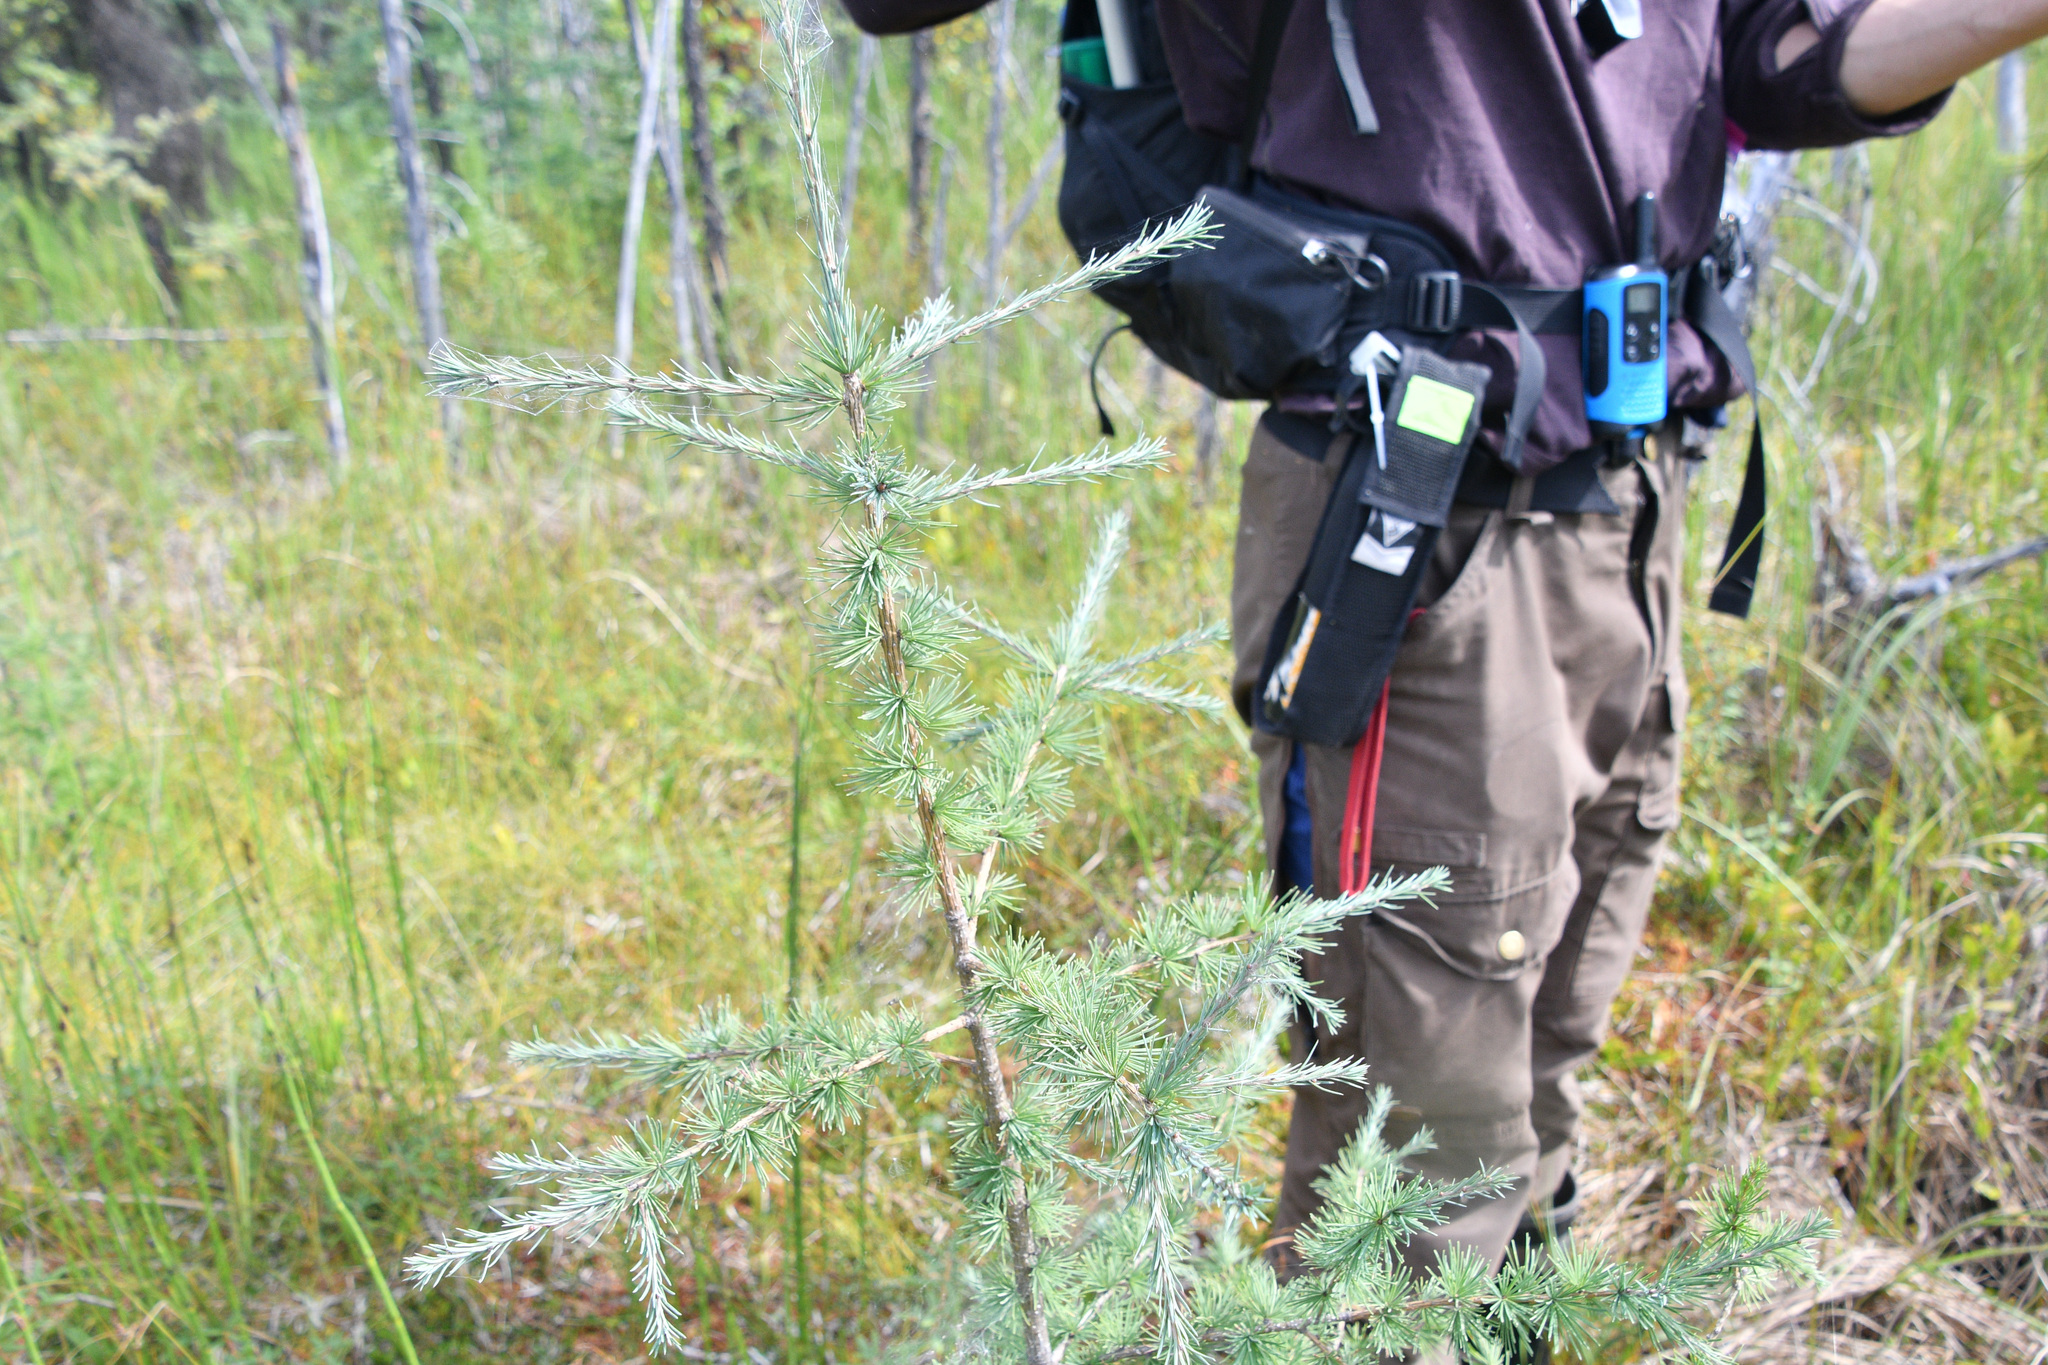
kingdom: Plantae
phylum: Tracheophyta
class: Pinopsida
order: Pinales
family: Pinaceae
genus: Larix
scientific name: Larix laricina
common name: American larch
